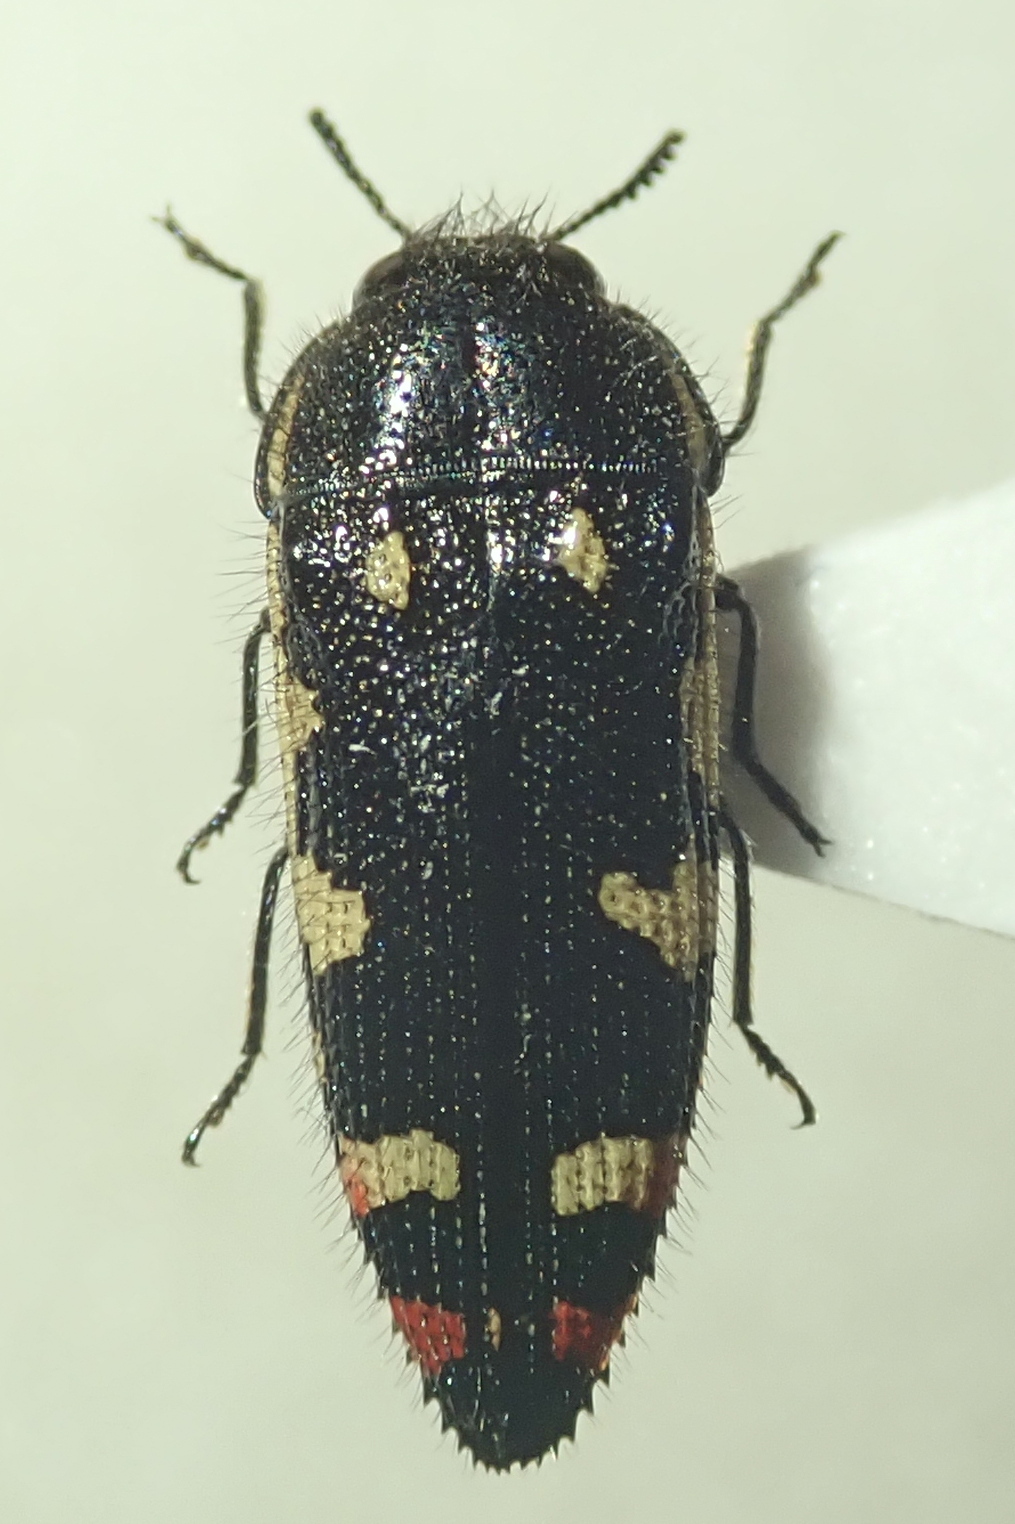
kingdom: Animalia
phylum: Arthropoda
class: Insecta
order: Coleoptera
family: Buprestidae
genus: Acmaeodera
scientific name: Acmaeodera amabilis
